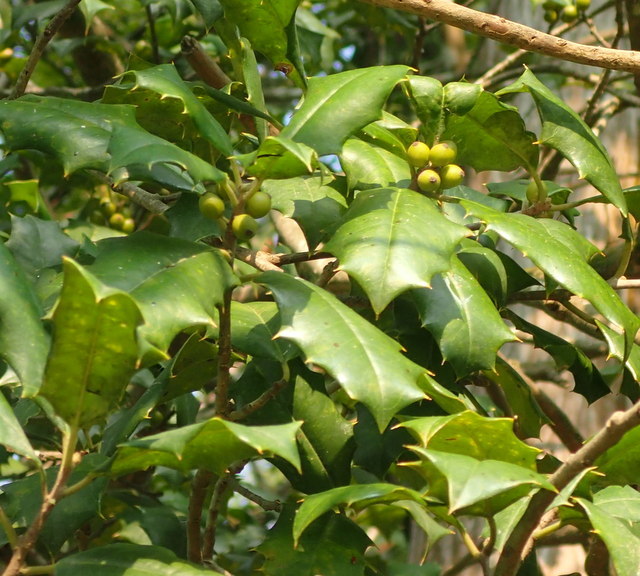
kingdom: Plantae
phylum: Tracheophyta
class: Magnoliopsida
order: Aquifoliales
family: Aquifoliaceae
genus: Ilex
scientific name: Ilex opaca
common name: American holly
